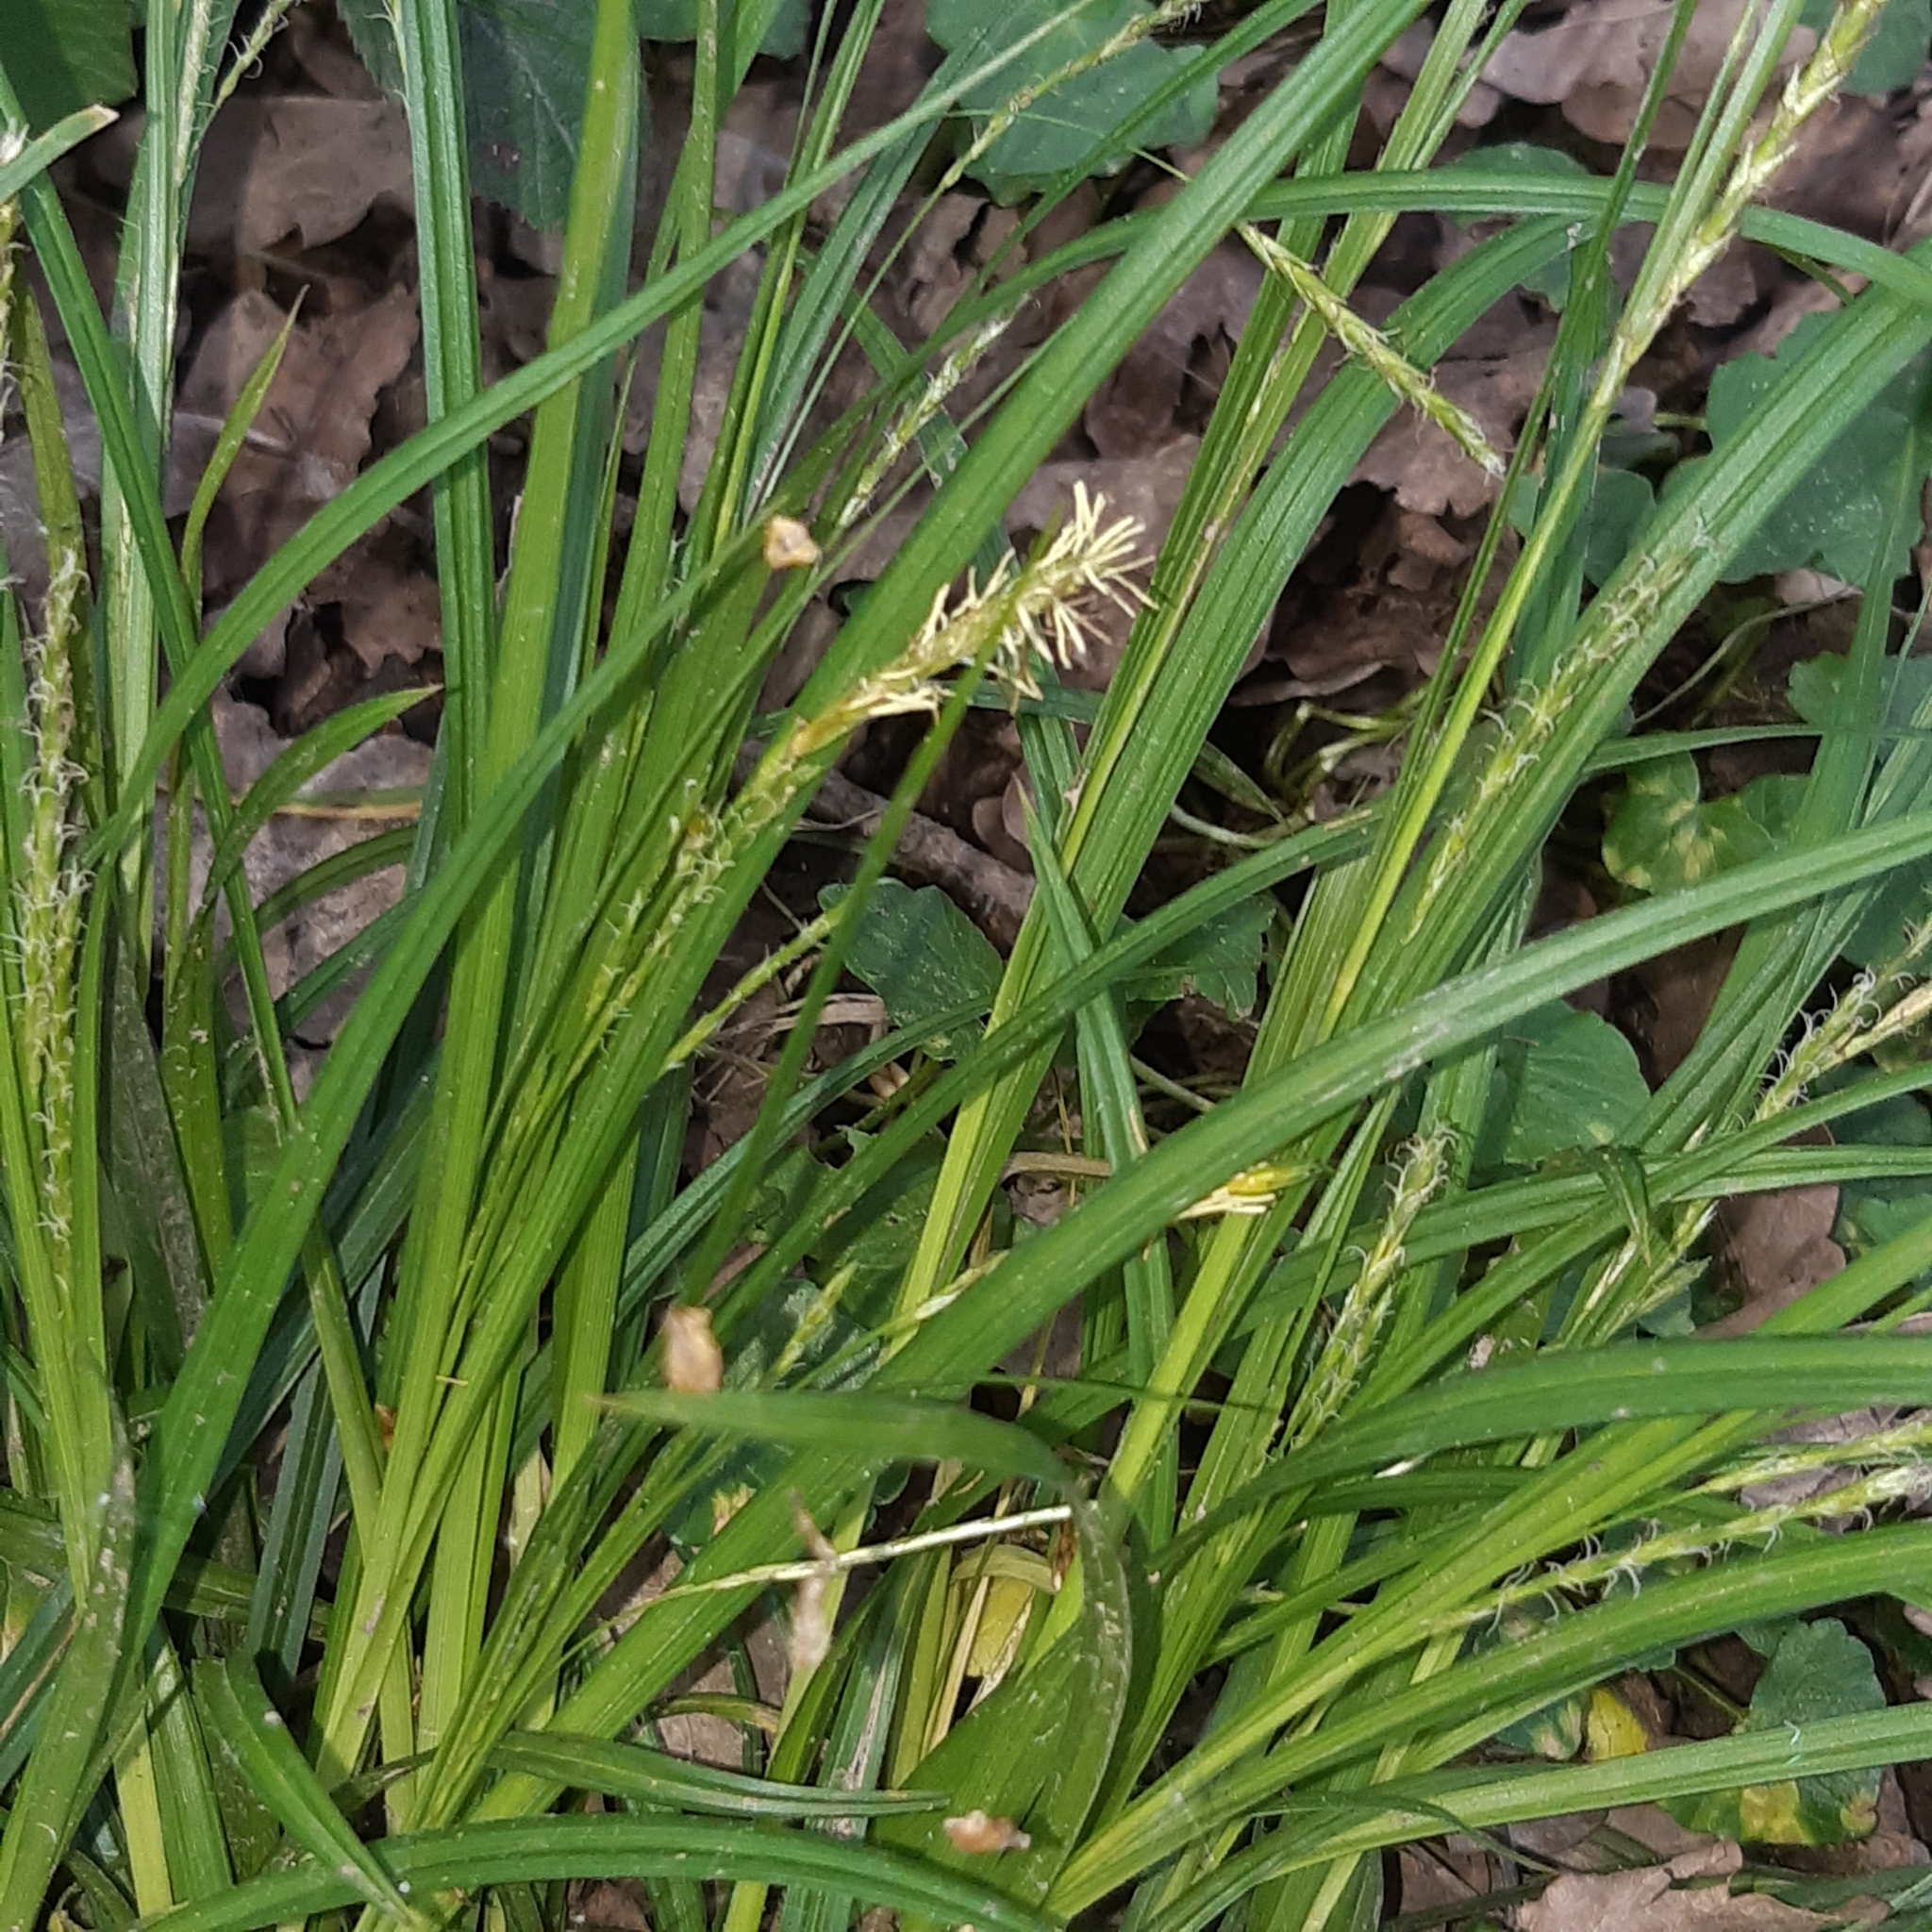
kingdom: Plantae
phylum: Tracheophyta
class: Liliopsida
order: Poales
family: Cyperaceae
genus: Carex
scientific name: Carex sylvatica
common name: Wood-sedge
